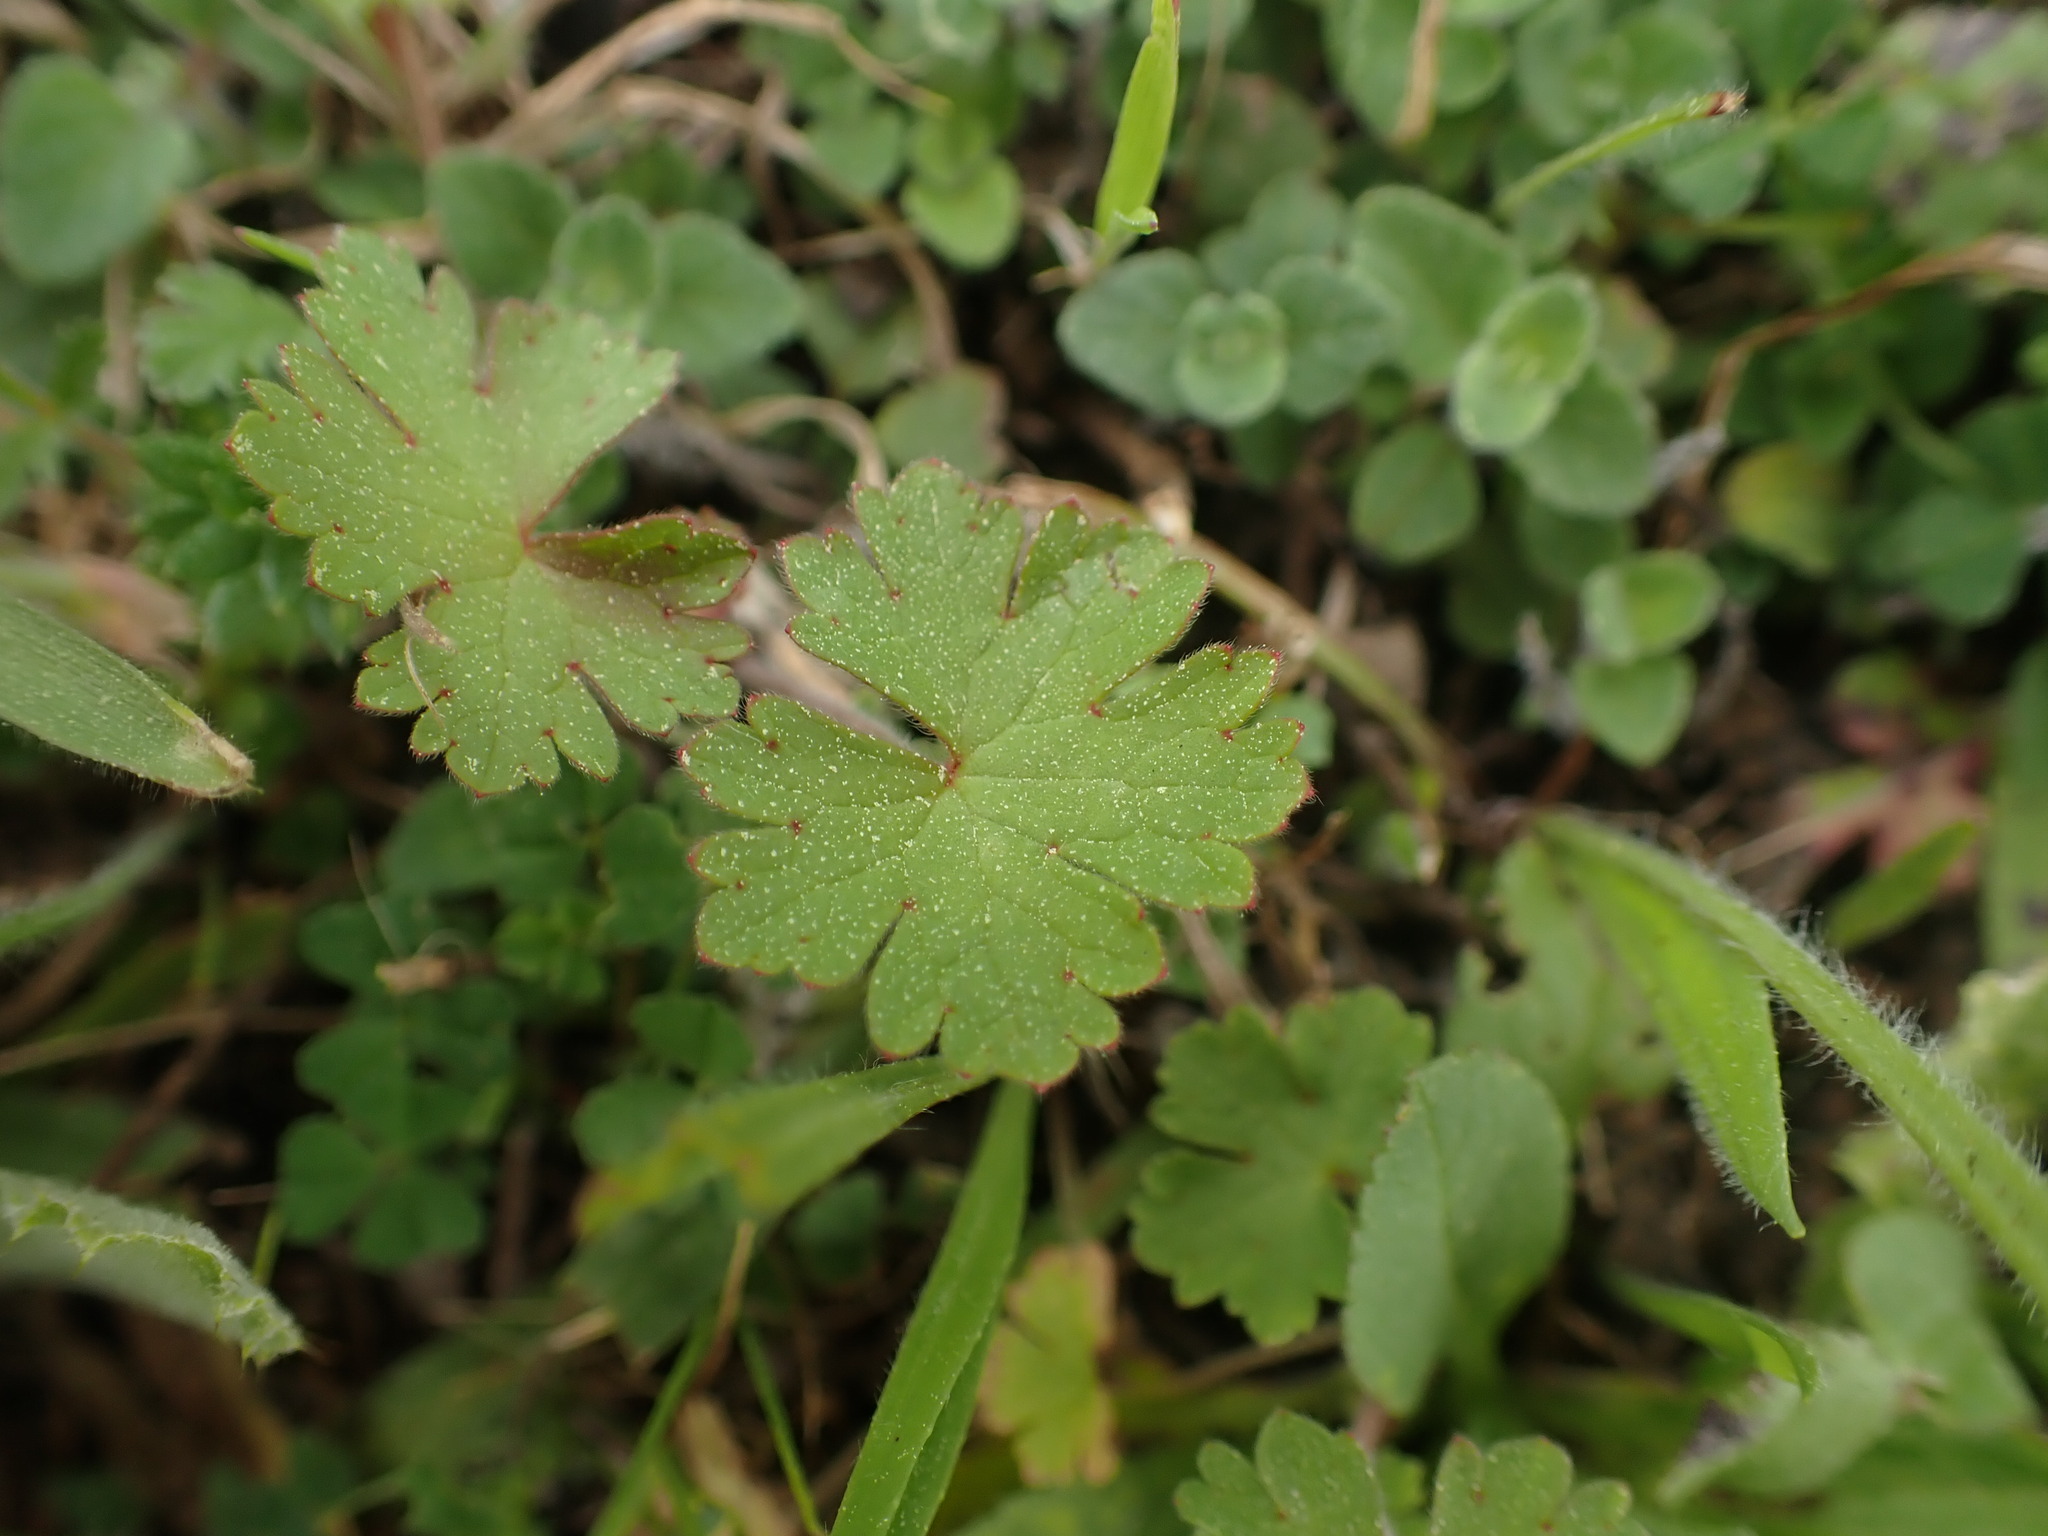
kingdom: Plantae
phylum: Tracheophyta
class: Magnoliopsida
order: Geraniales
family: Geraniaceae
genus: Geranium
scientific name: Geranium rotundifolium
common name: Round-leaved crane's-bill
